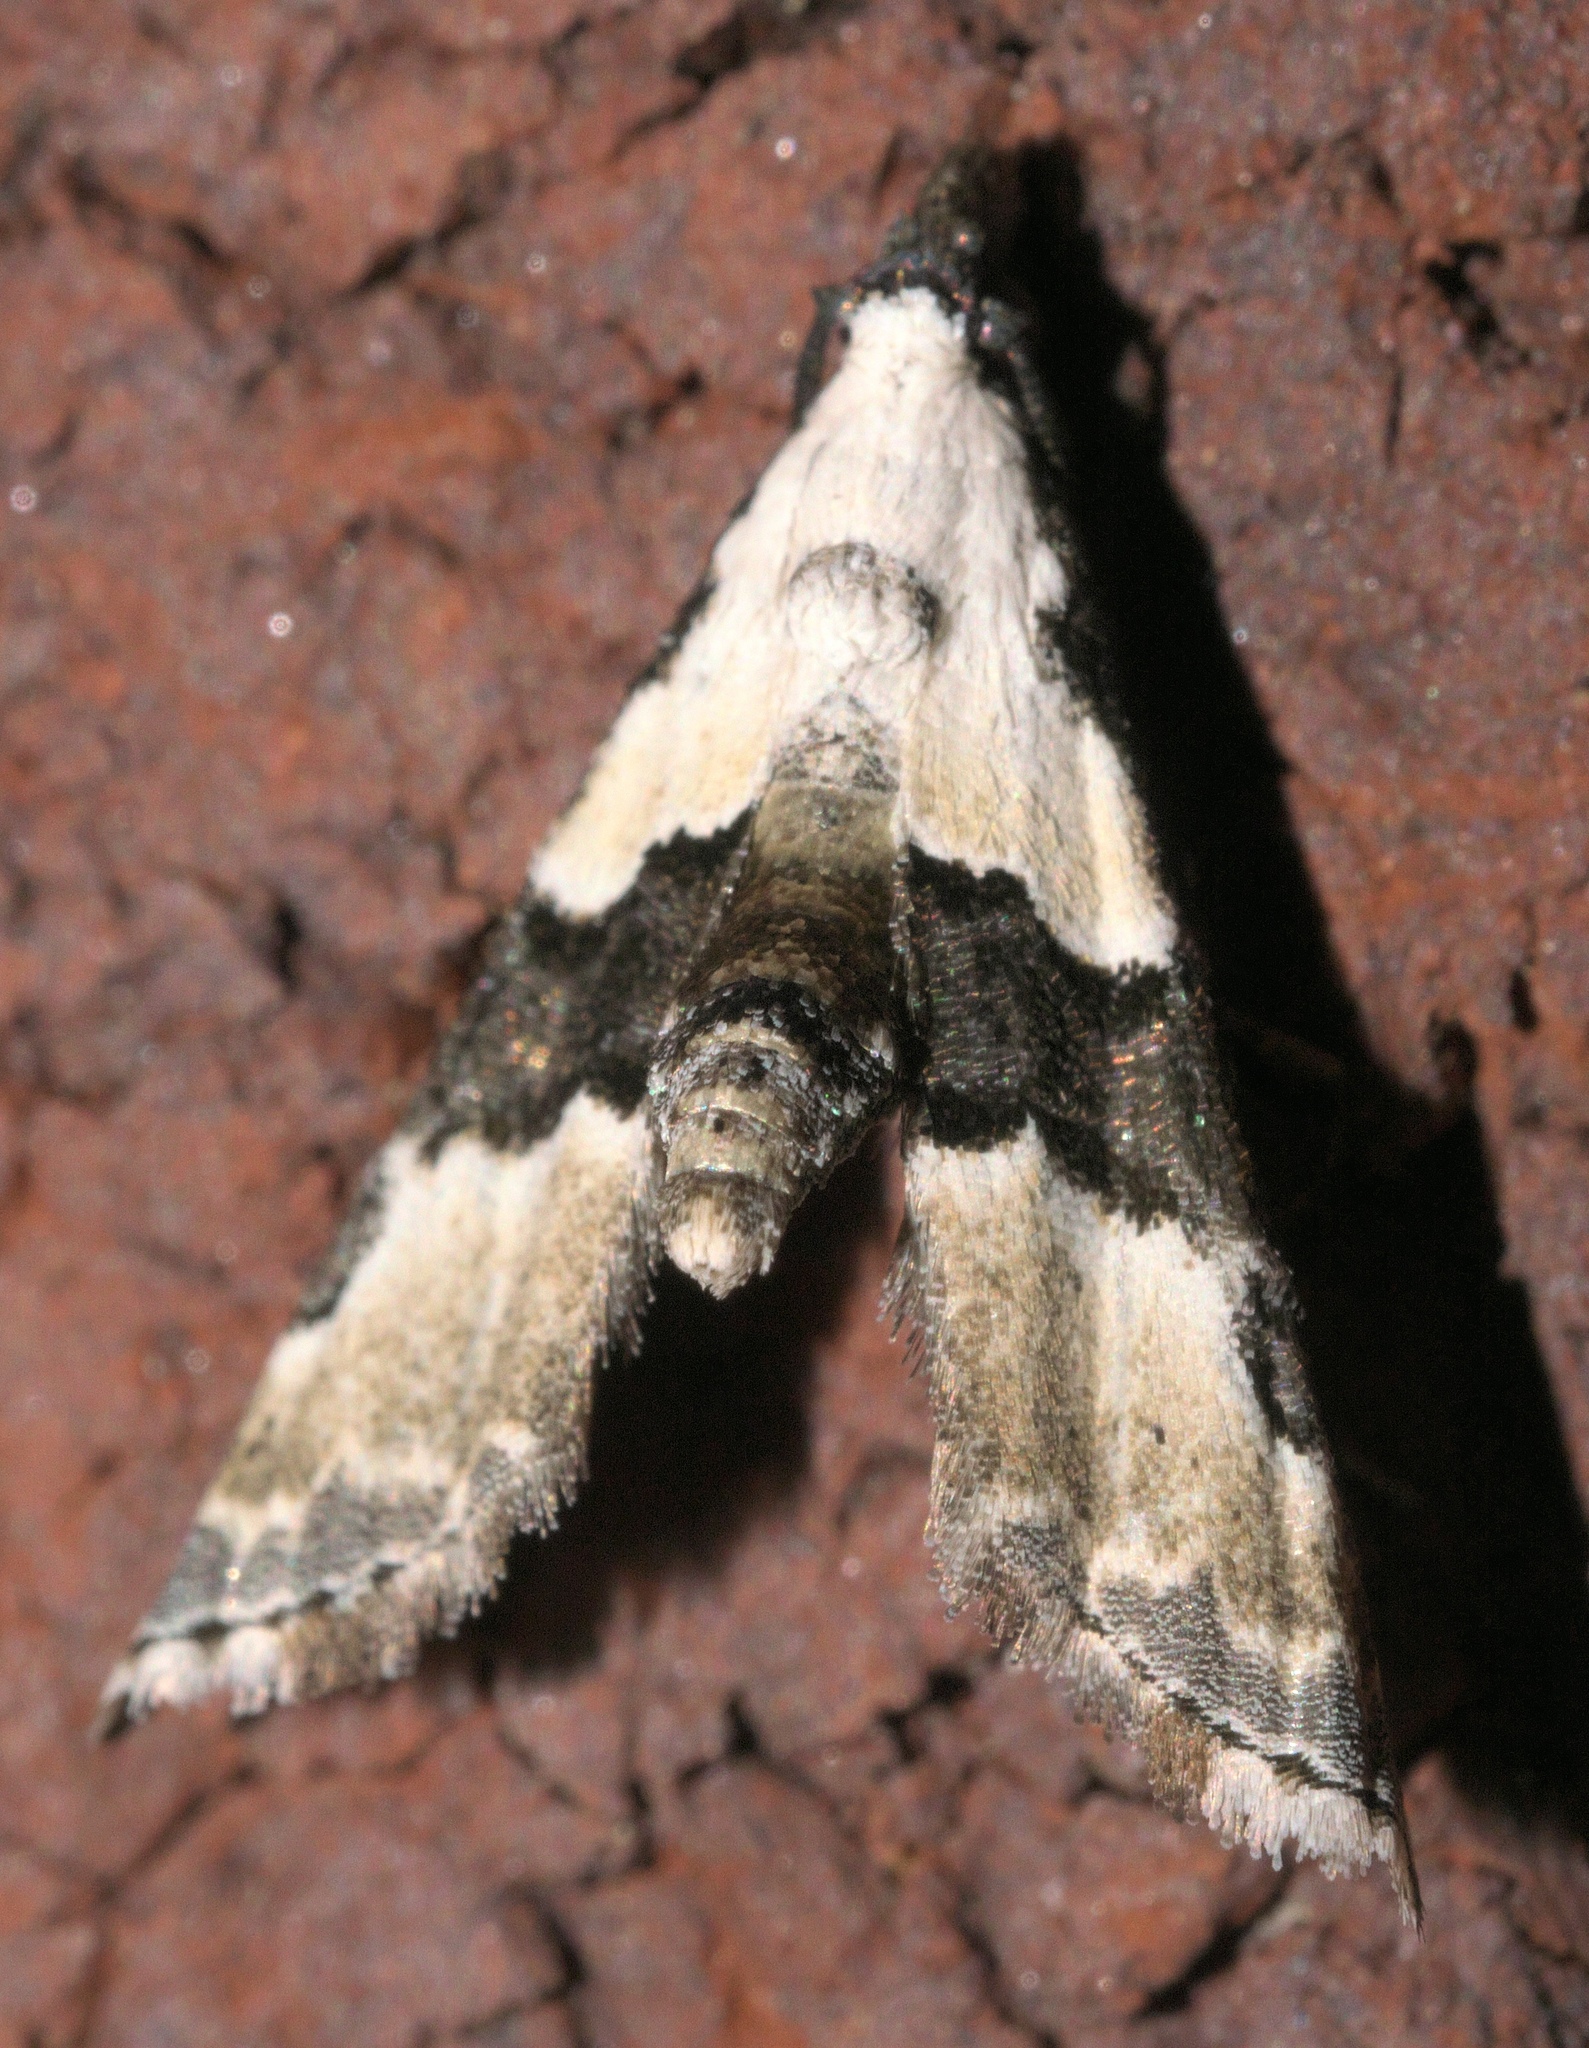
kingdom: Animalia
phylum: Arthropoda
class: Insecta
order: Lepidoptera
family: Noctuidae
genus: Nigetia
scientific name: Nigetia formosalis
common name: Thin-winged owlet
